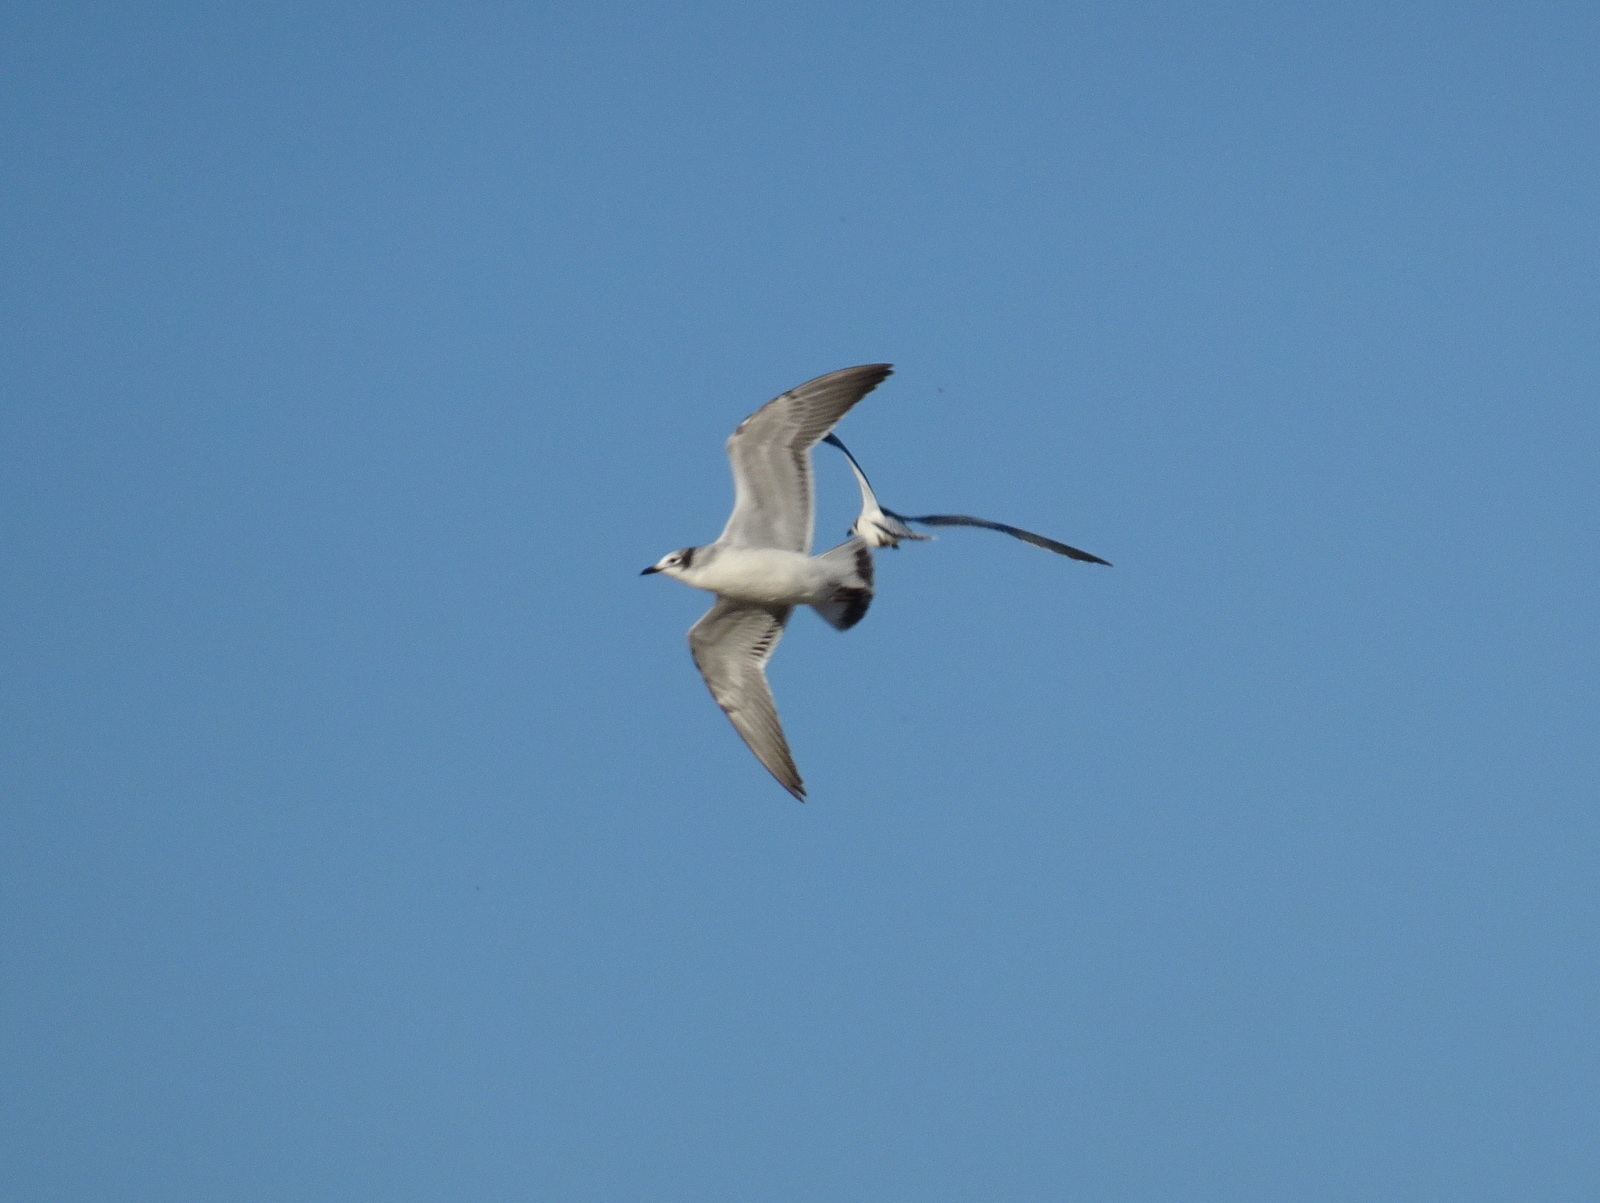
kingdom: Animalia
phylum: Chordata
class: Aves
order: Charadriiformes
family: Laridae
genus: Leucophaeus
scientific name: Leucophaeus pipixcan
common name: Franklin's gull
